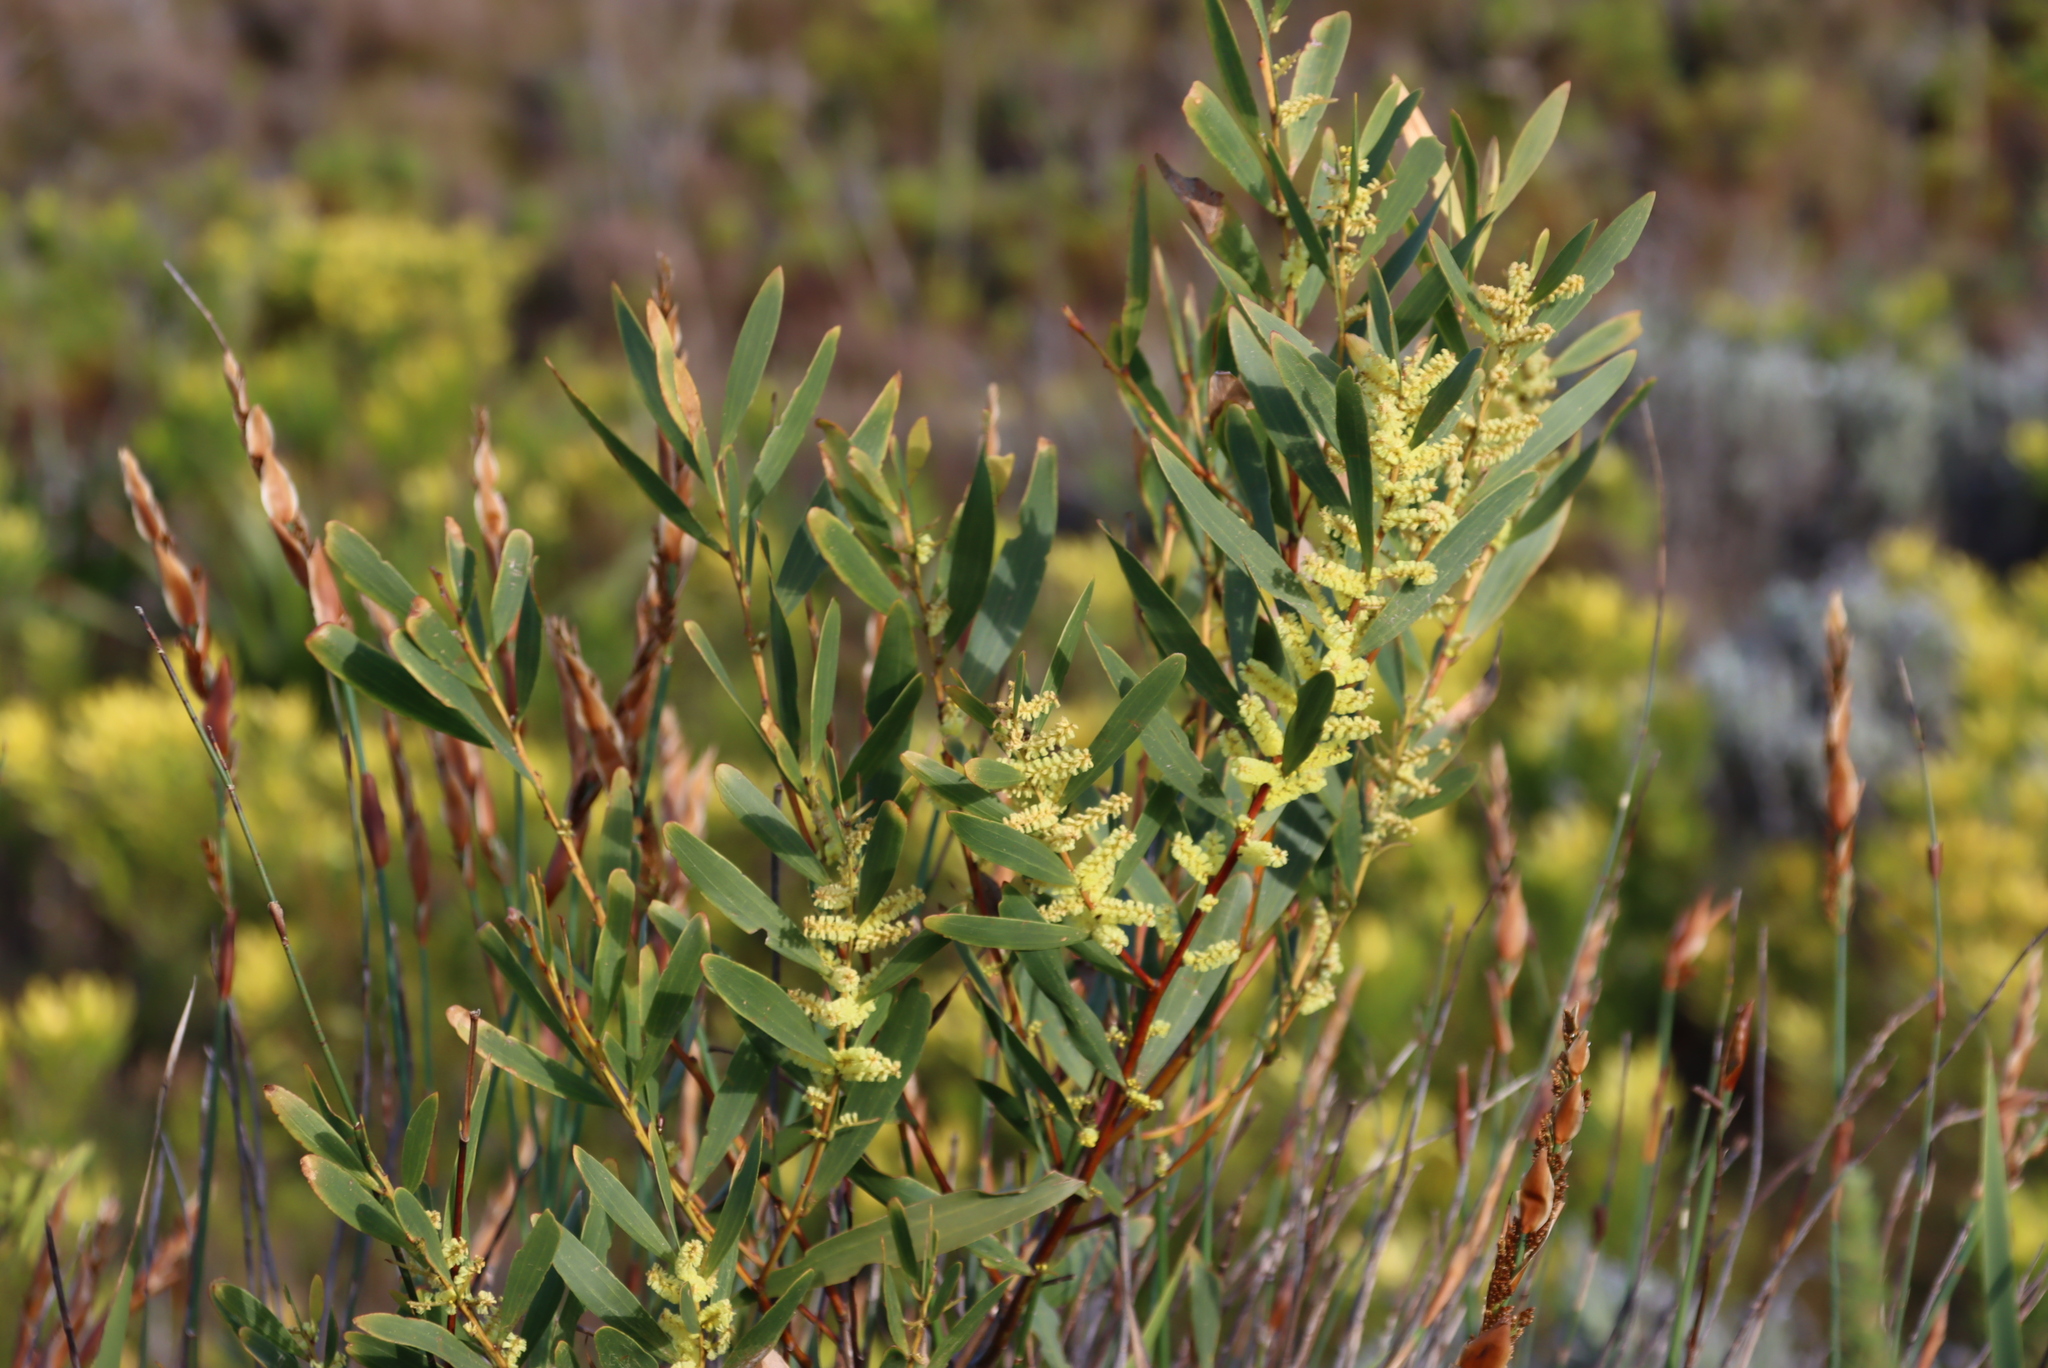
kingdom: Plantae
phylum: Tracheophyta
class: Magnoliopsida
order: Fabales
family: Fabaceae
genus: Acacia
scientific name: Acacia longifolia
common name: Sydney golden wattle
